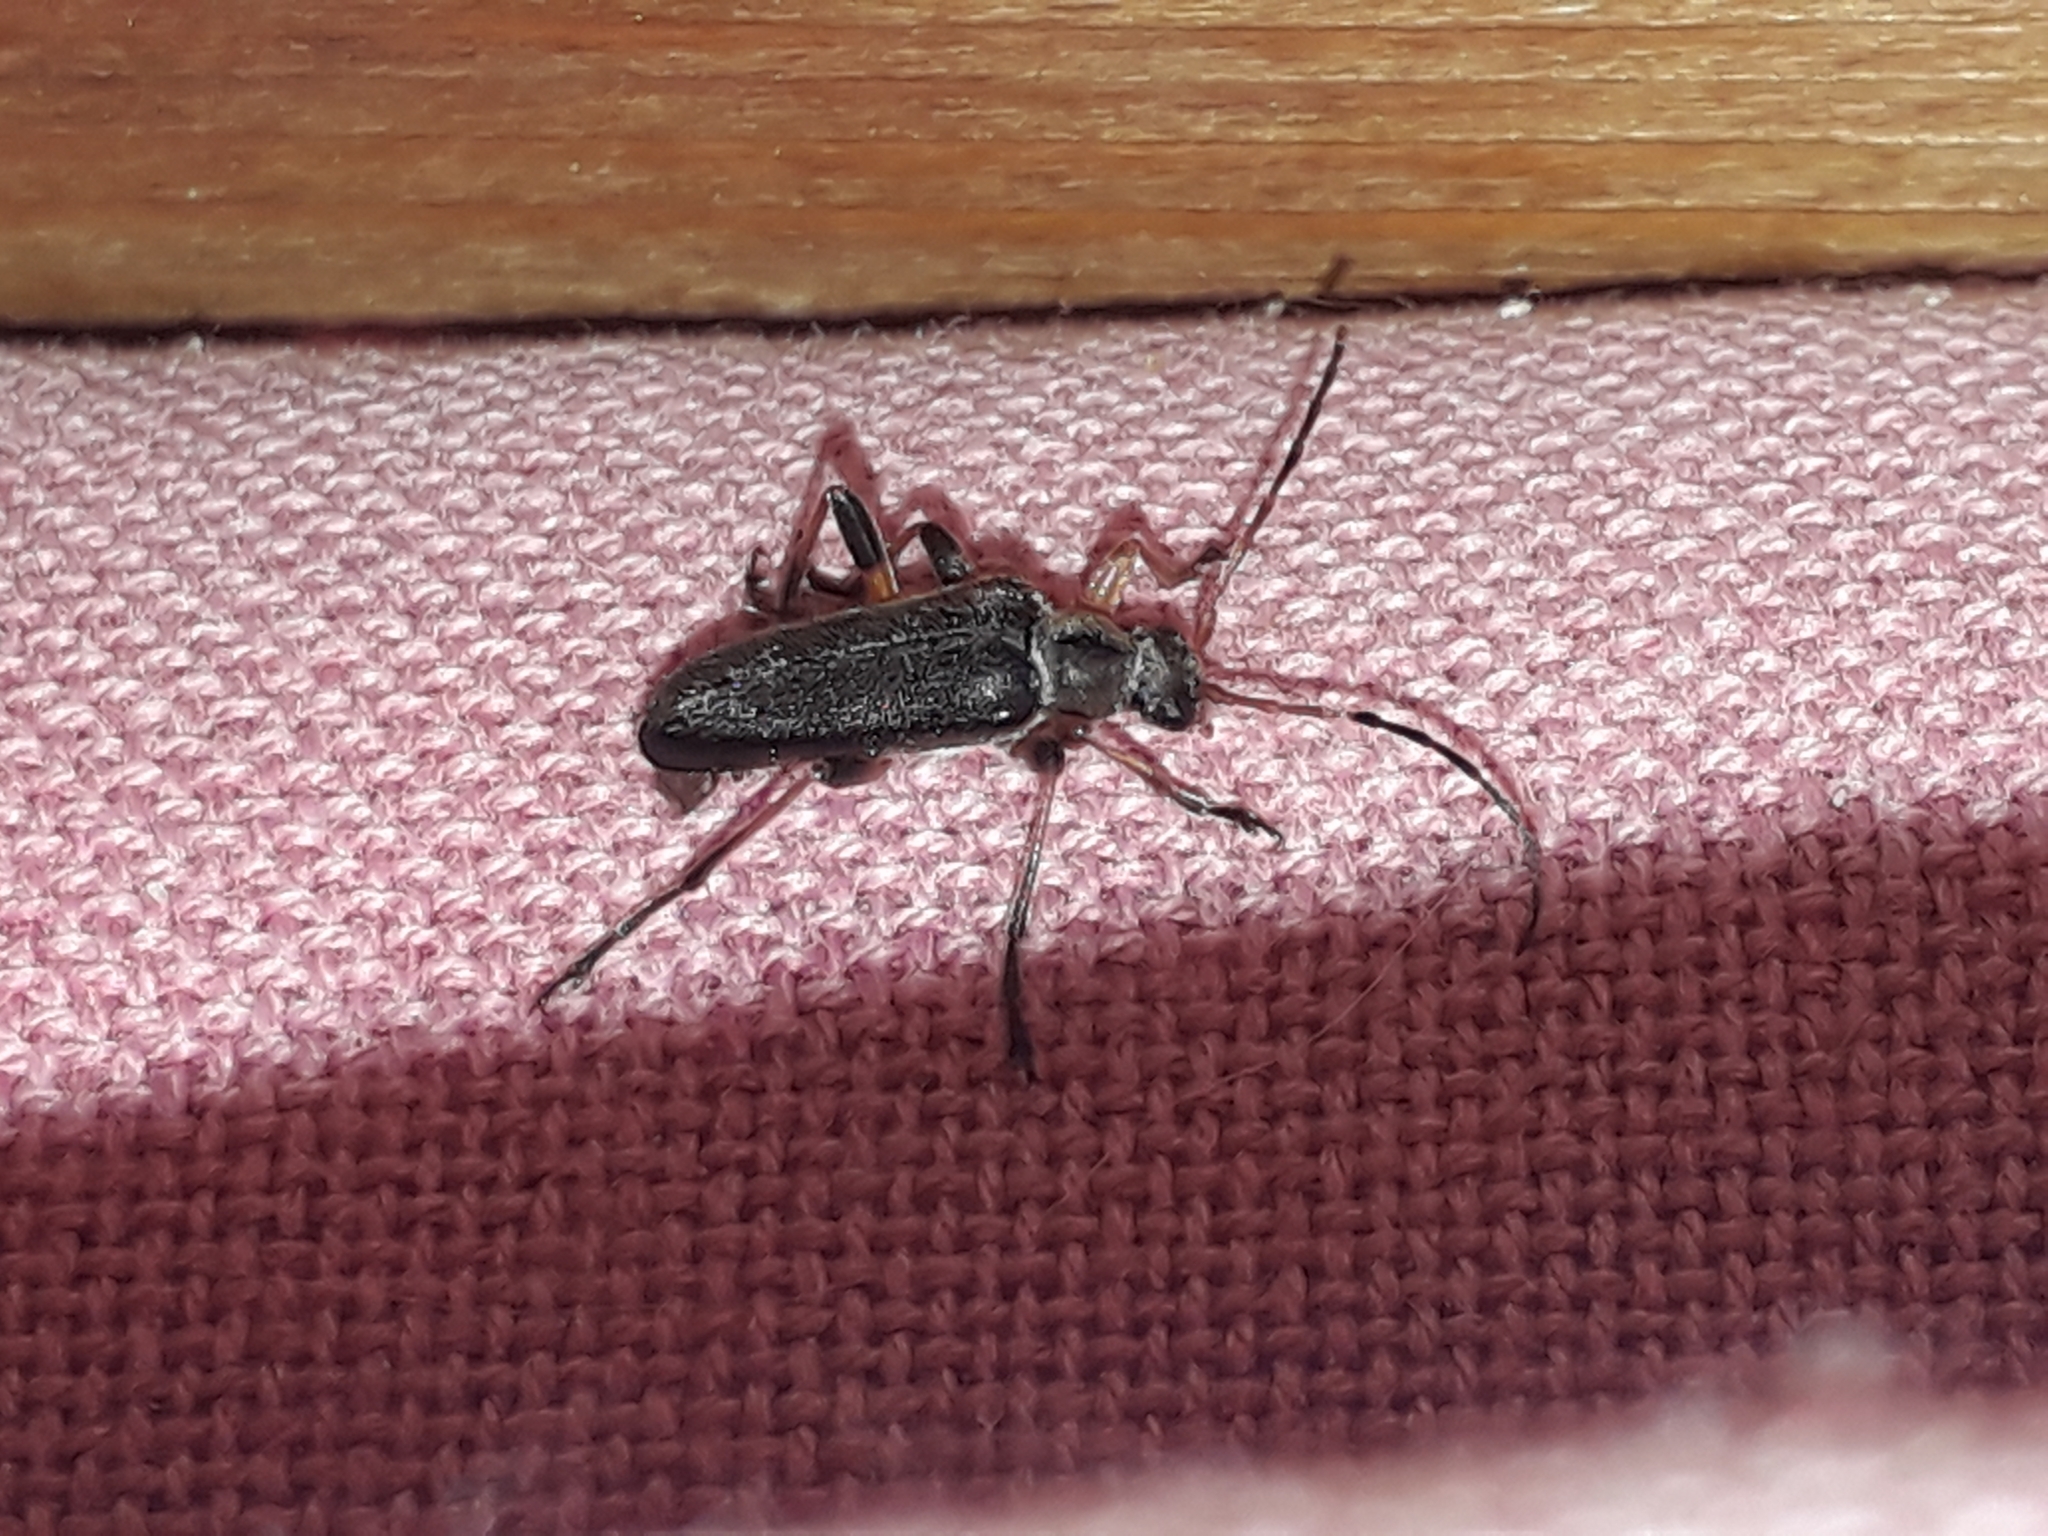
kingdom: Animalia
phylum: Arthropoda
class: Insecta
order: Coleoptera
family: Cerambycidae
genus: Cortodera
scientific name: Cortodera femorata
